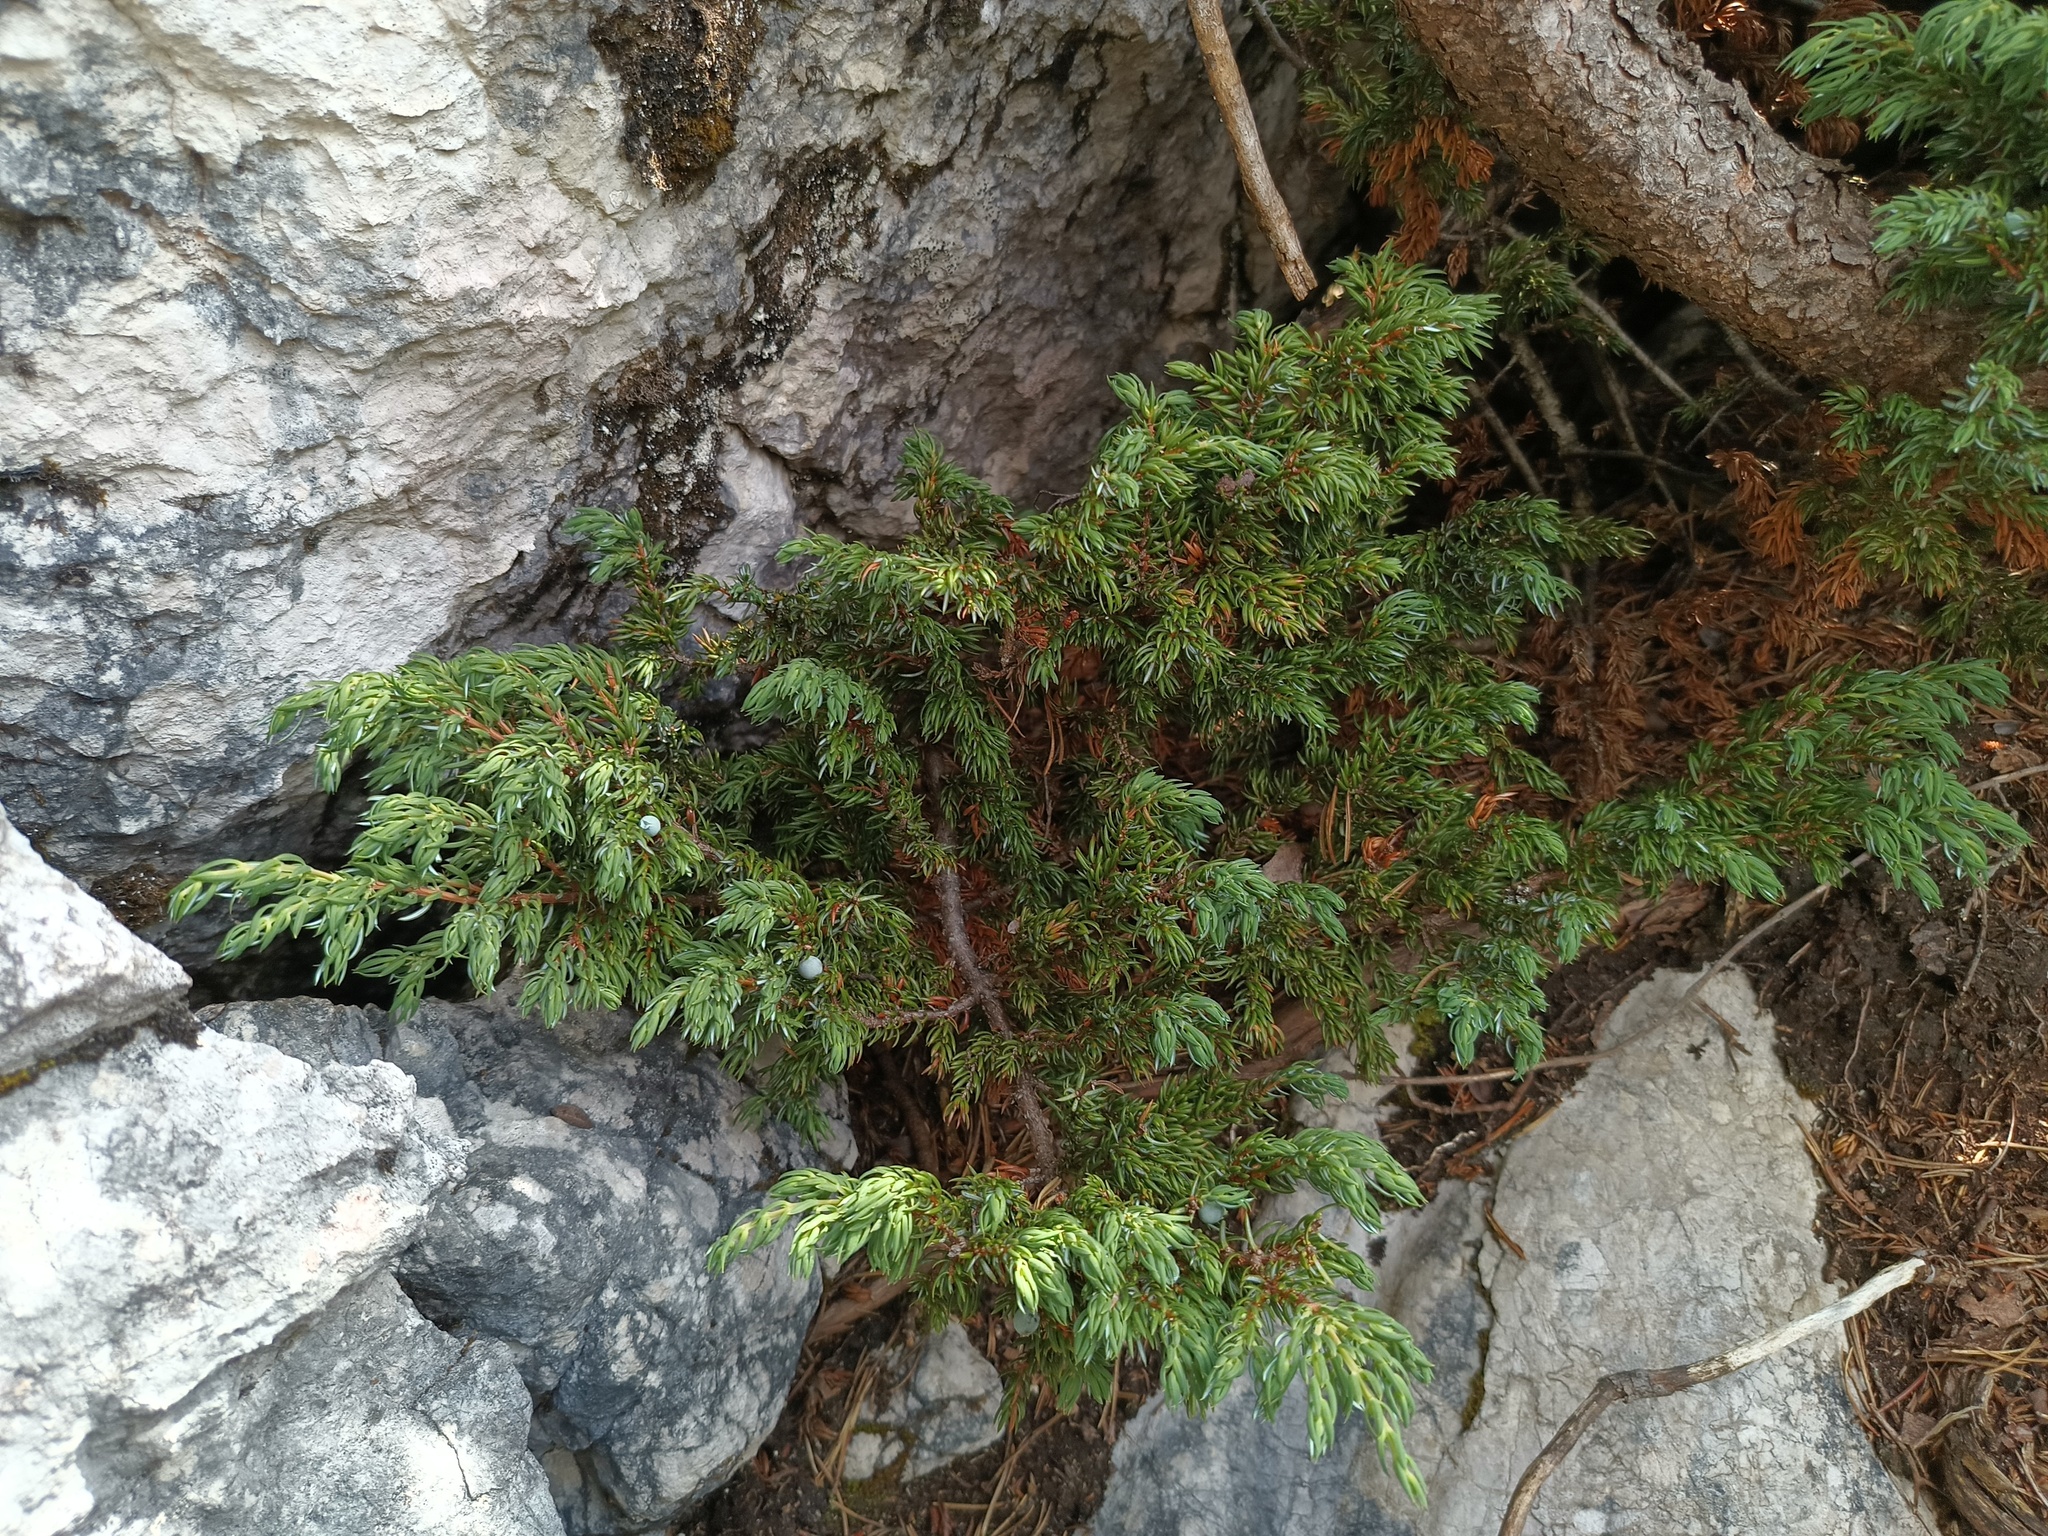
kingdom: Plantae
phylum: Tracheophyta
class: Pinopsida
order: Pinales
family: Cupressaceae
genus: Juniperus
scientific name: Juniperus communis
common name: Common juniper
